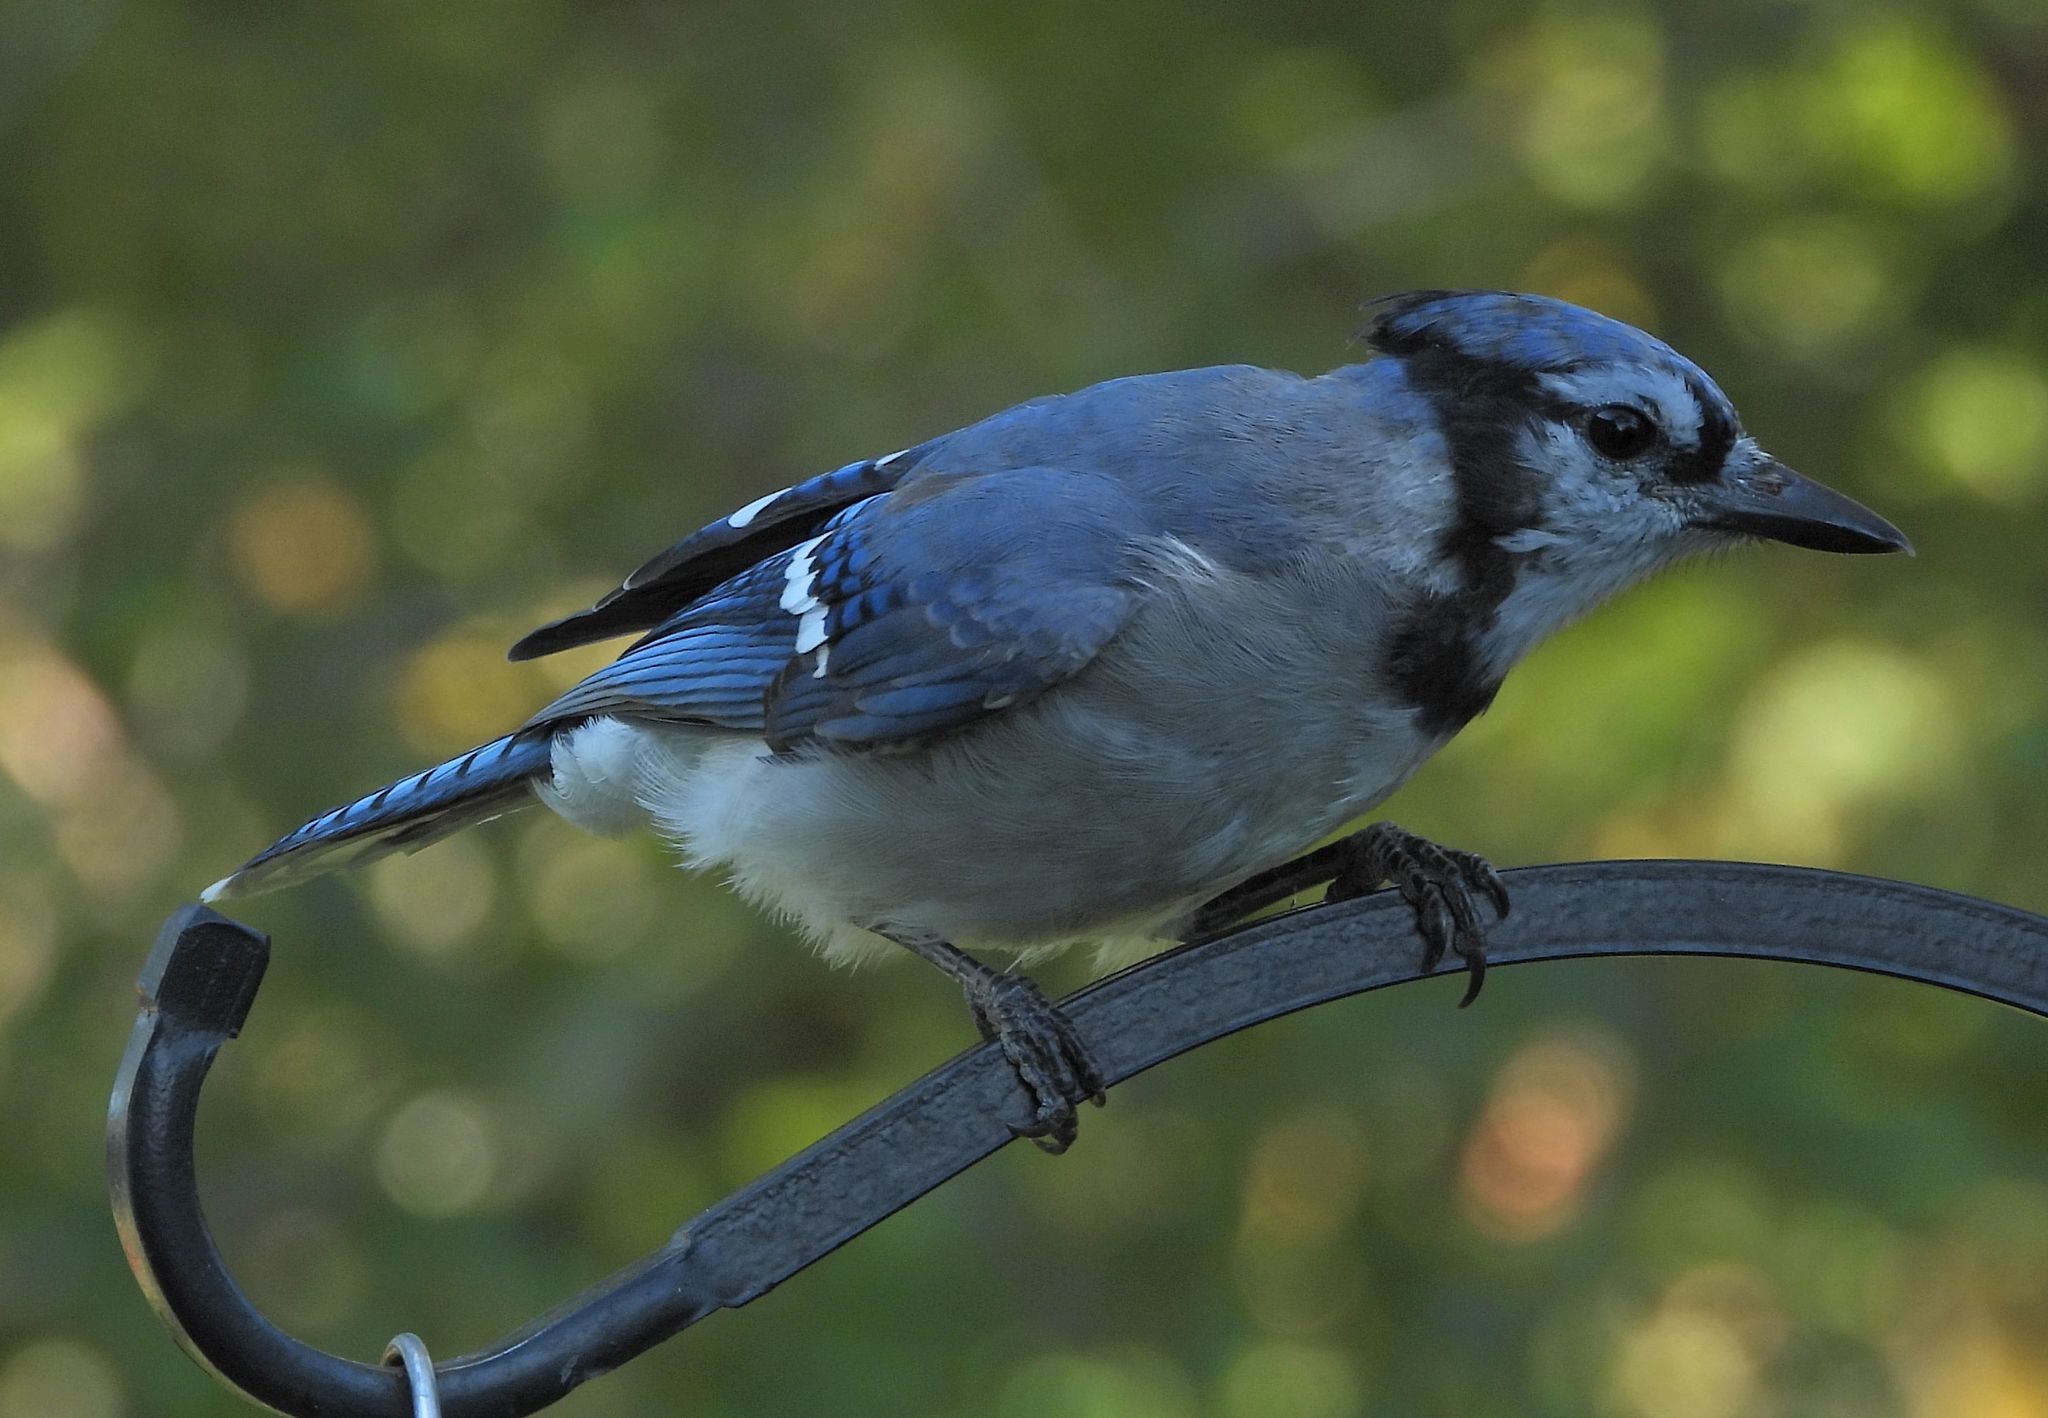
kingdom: Animalia
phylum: Chordata
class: Aves
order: Passeriformes
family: Corvidae
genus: Cyanocitta
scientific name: Cyanocitta cristata
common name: Blue jay
